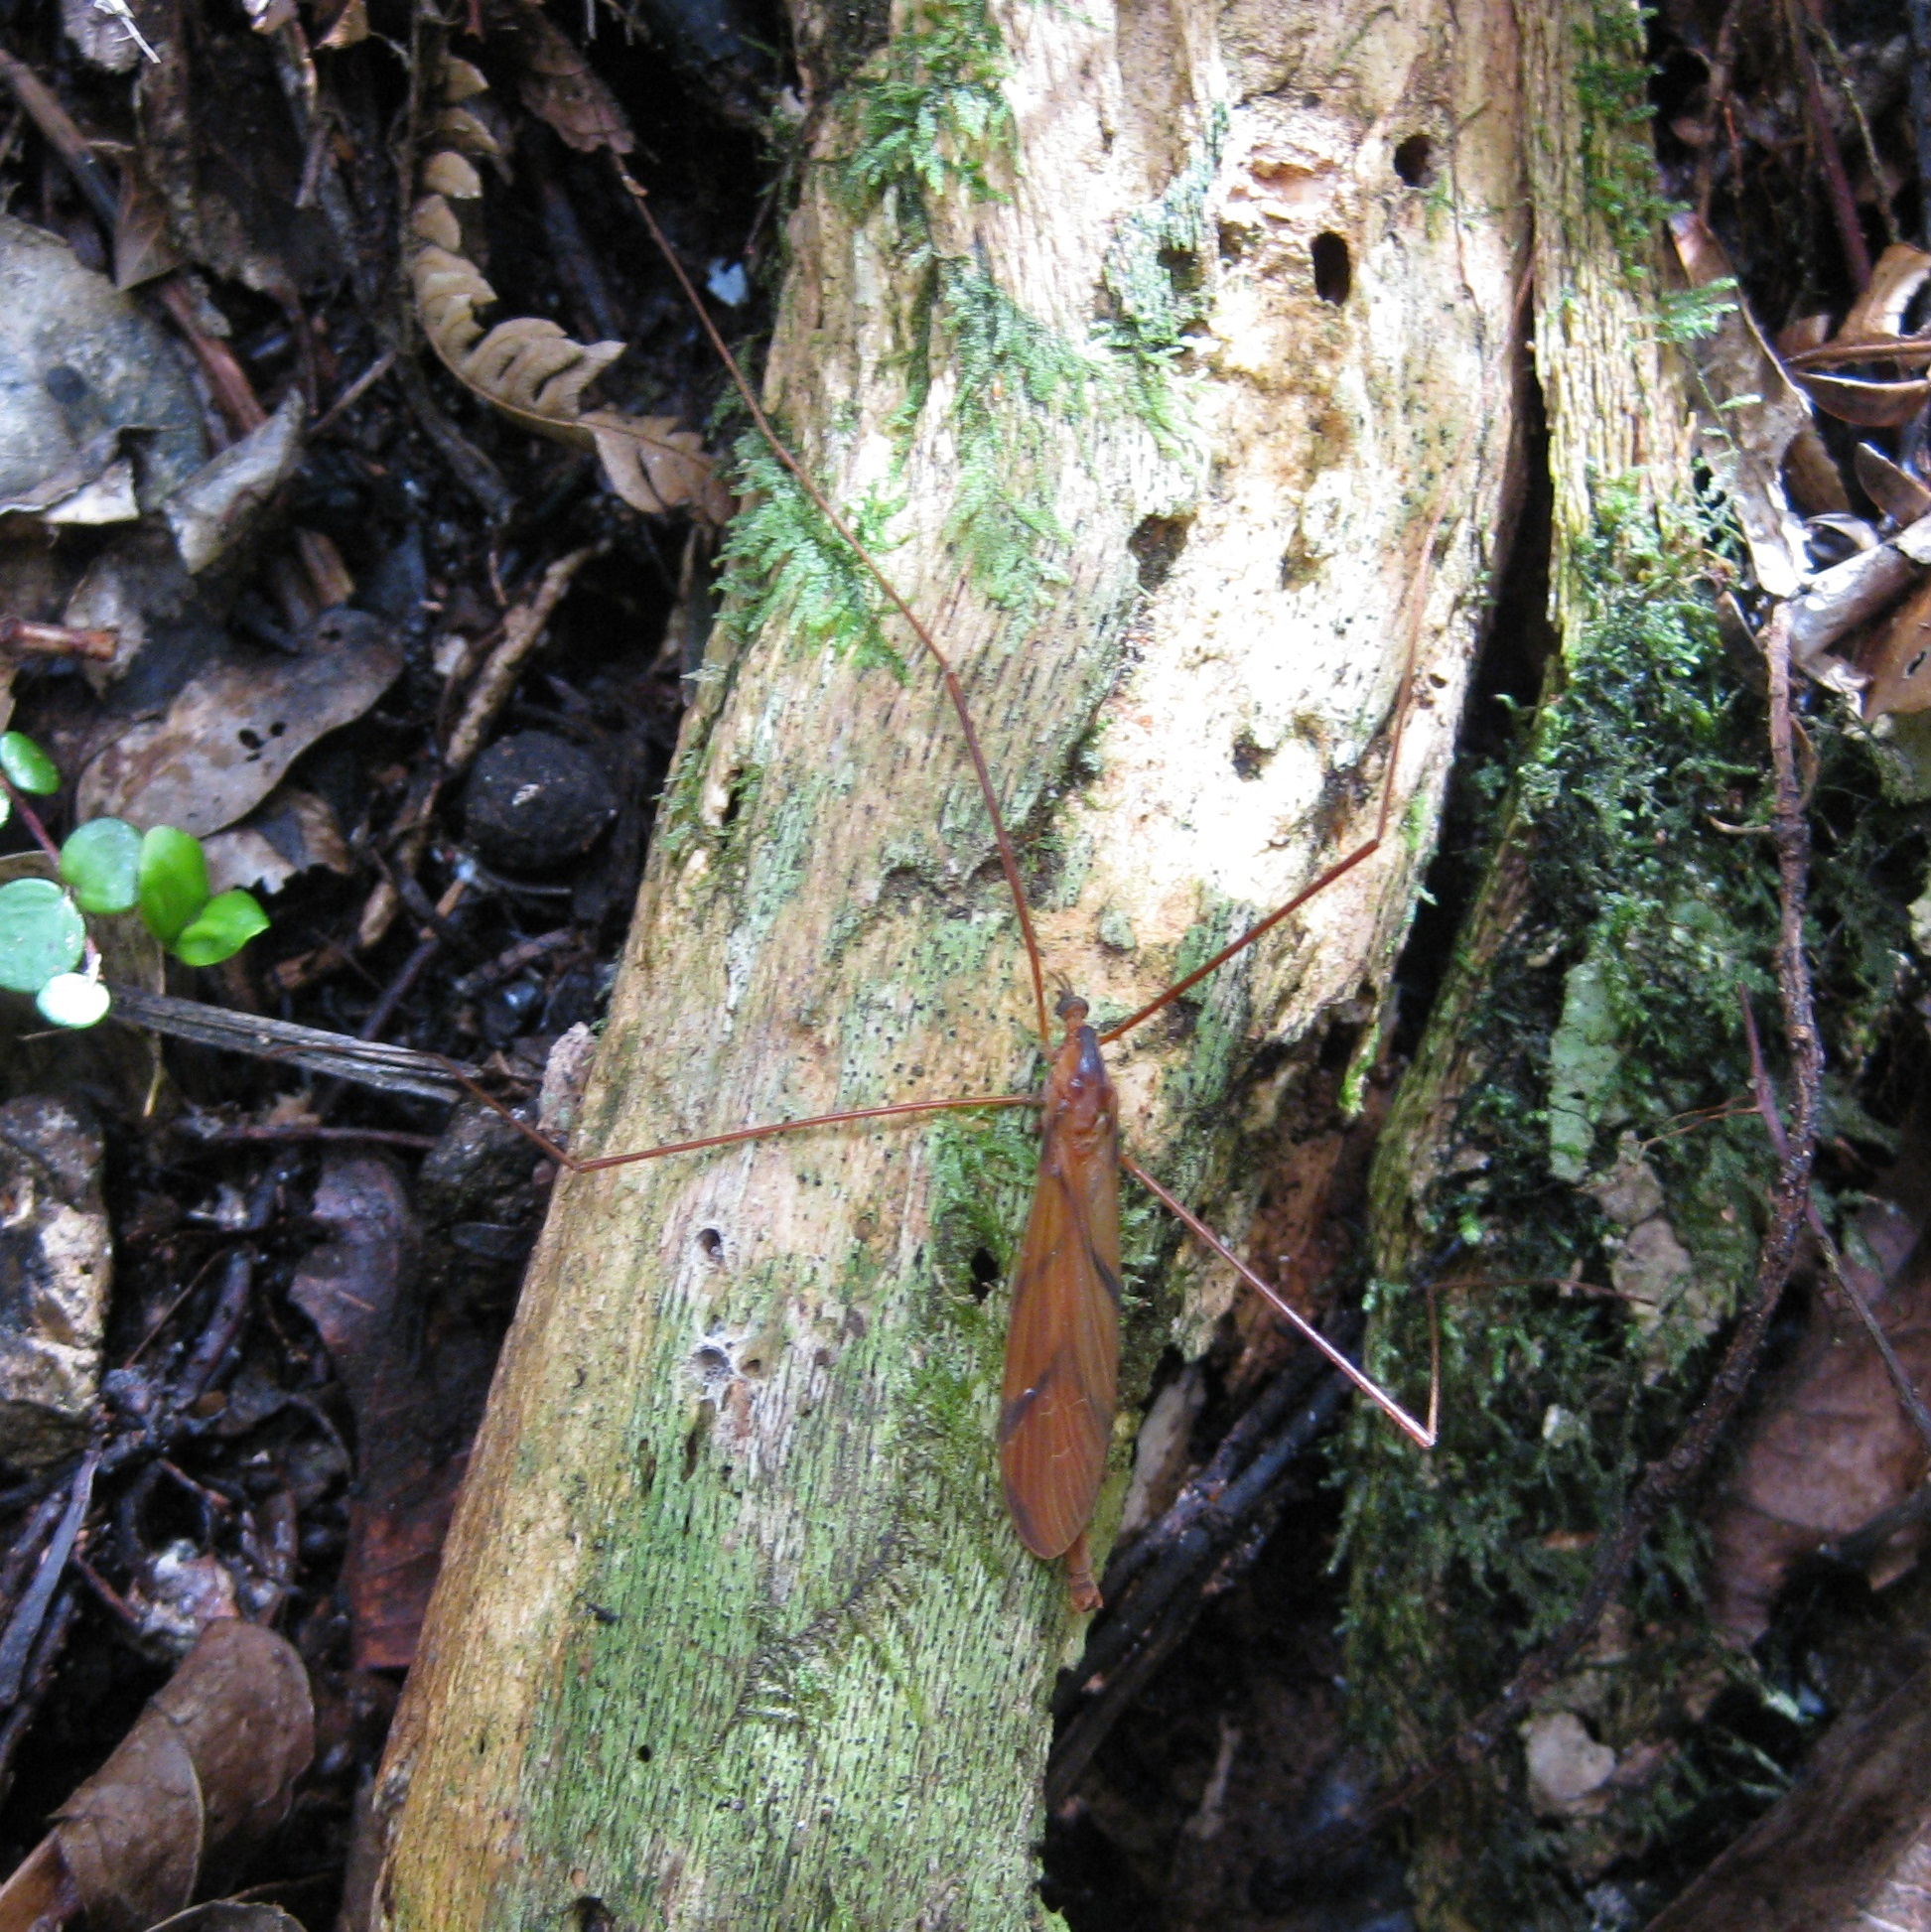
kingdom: Animalia
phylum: Arthropoda
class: Insecta
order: Diptera
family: Limoniidae
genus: Sigmatomera
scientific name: Sigmatomera rufa
